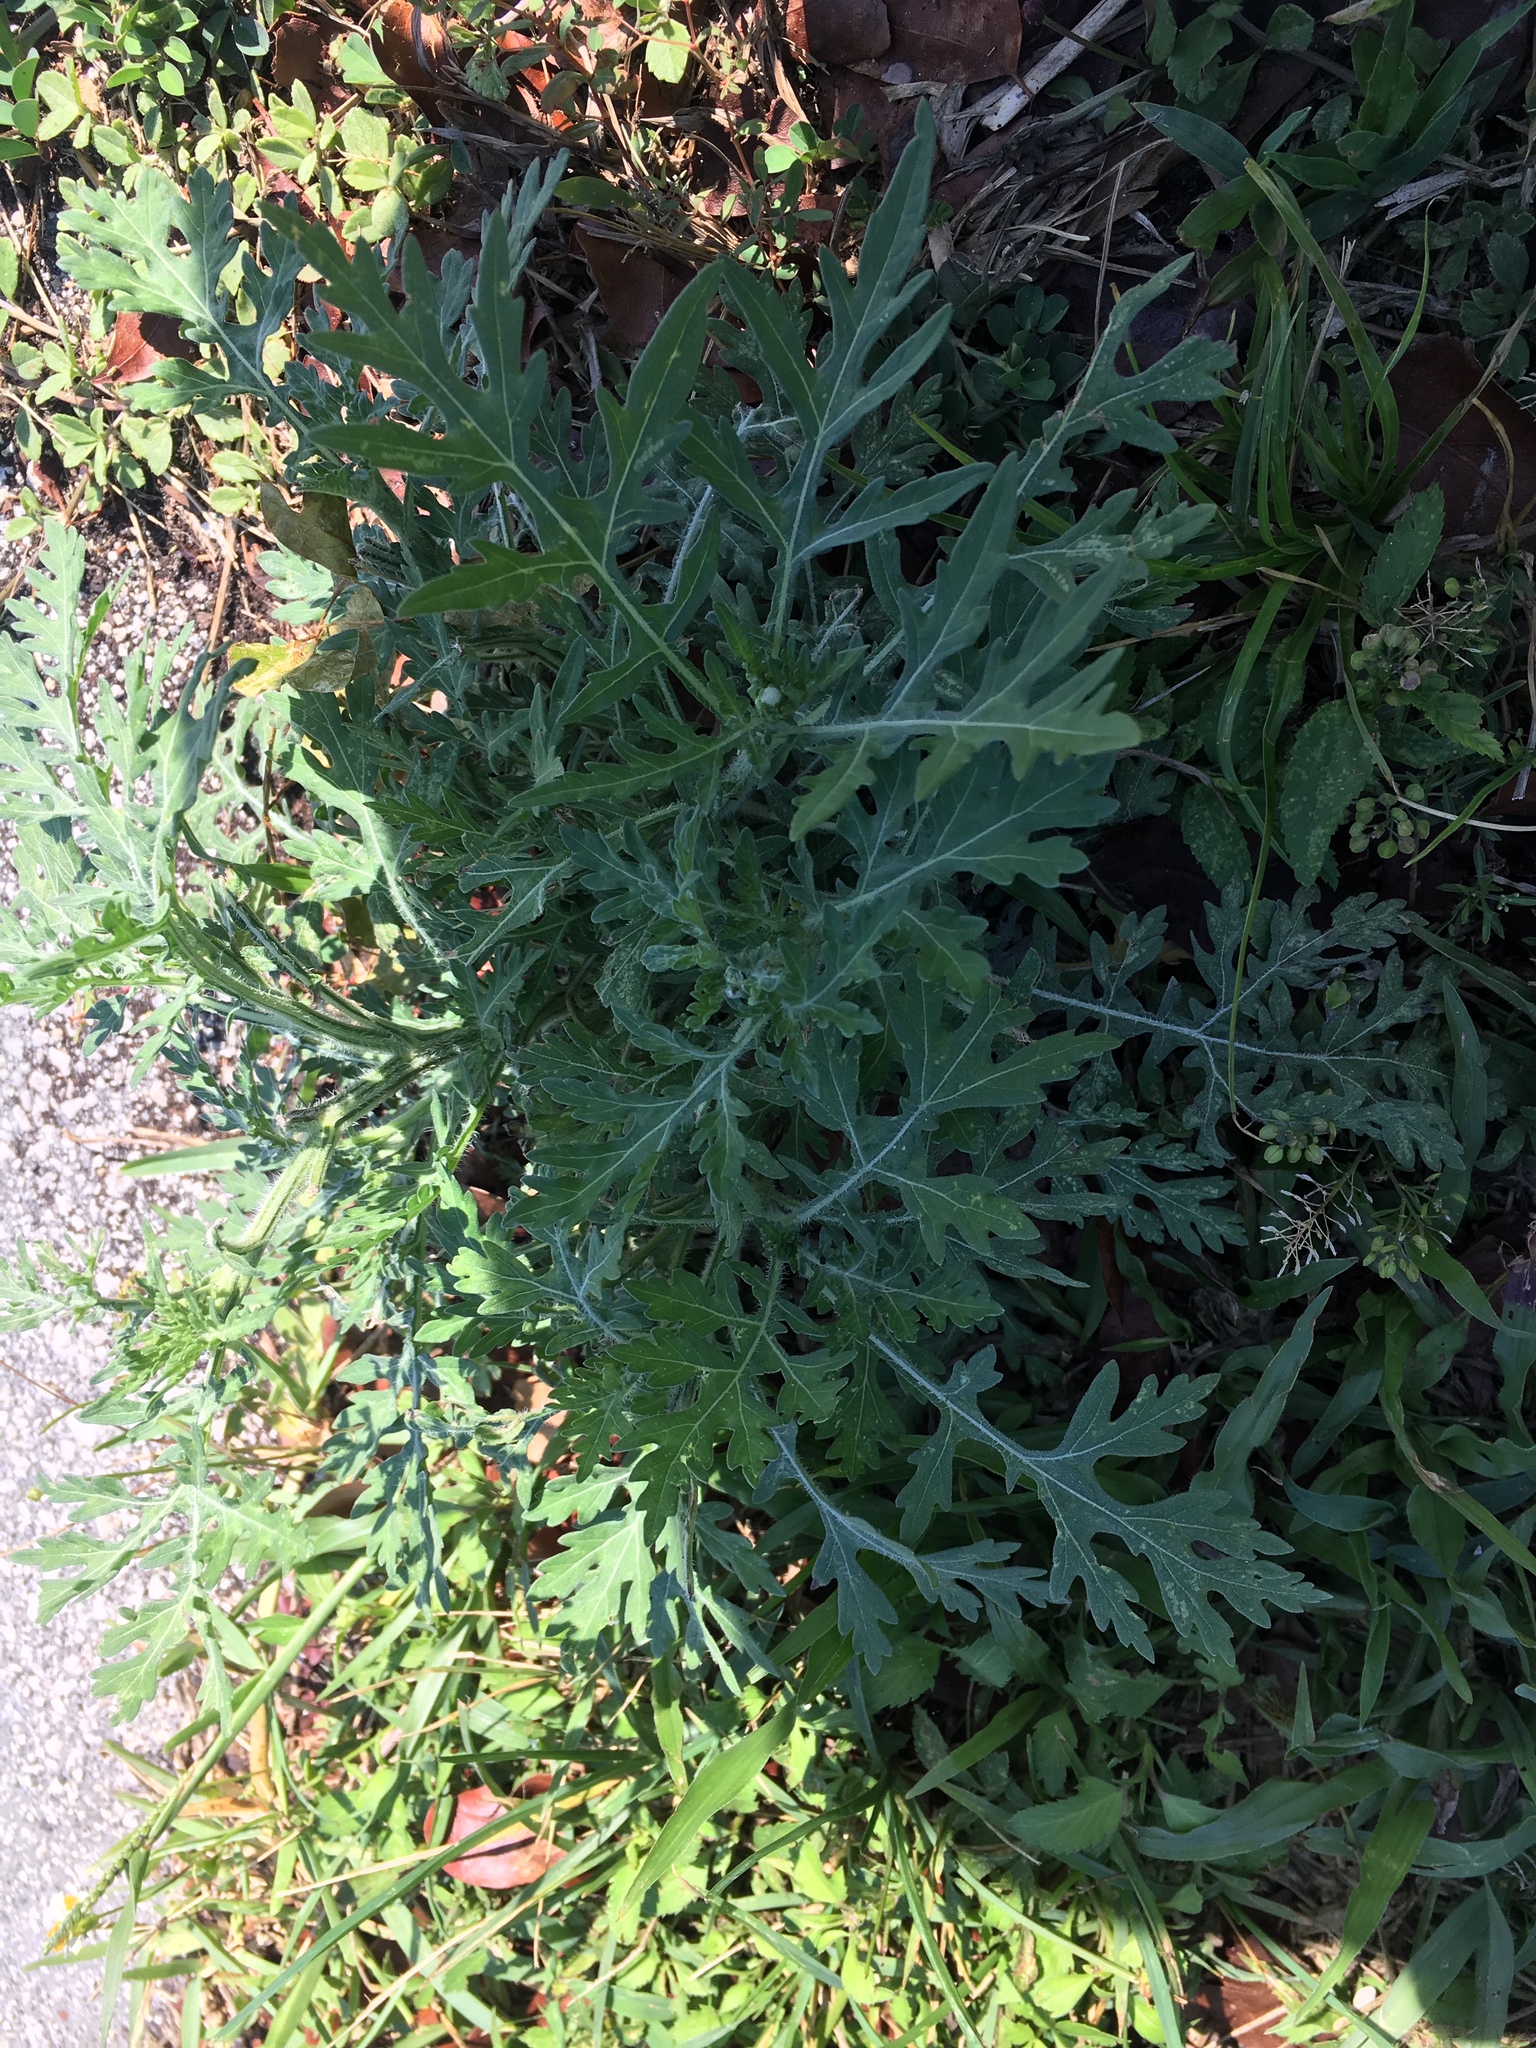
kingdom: Plantae
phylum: Tracheophyta
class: Magnoliopsida
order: Asterales
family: Asteraceae
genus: Ambrosia
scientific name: Ambrosia artemisiifolia
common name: Annual ragweed
